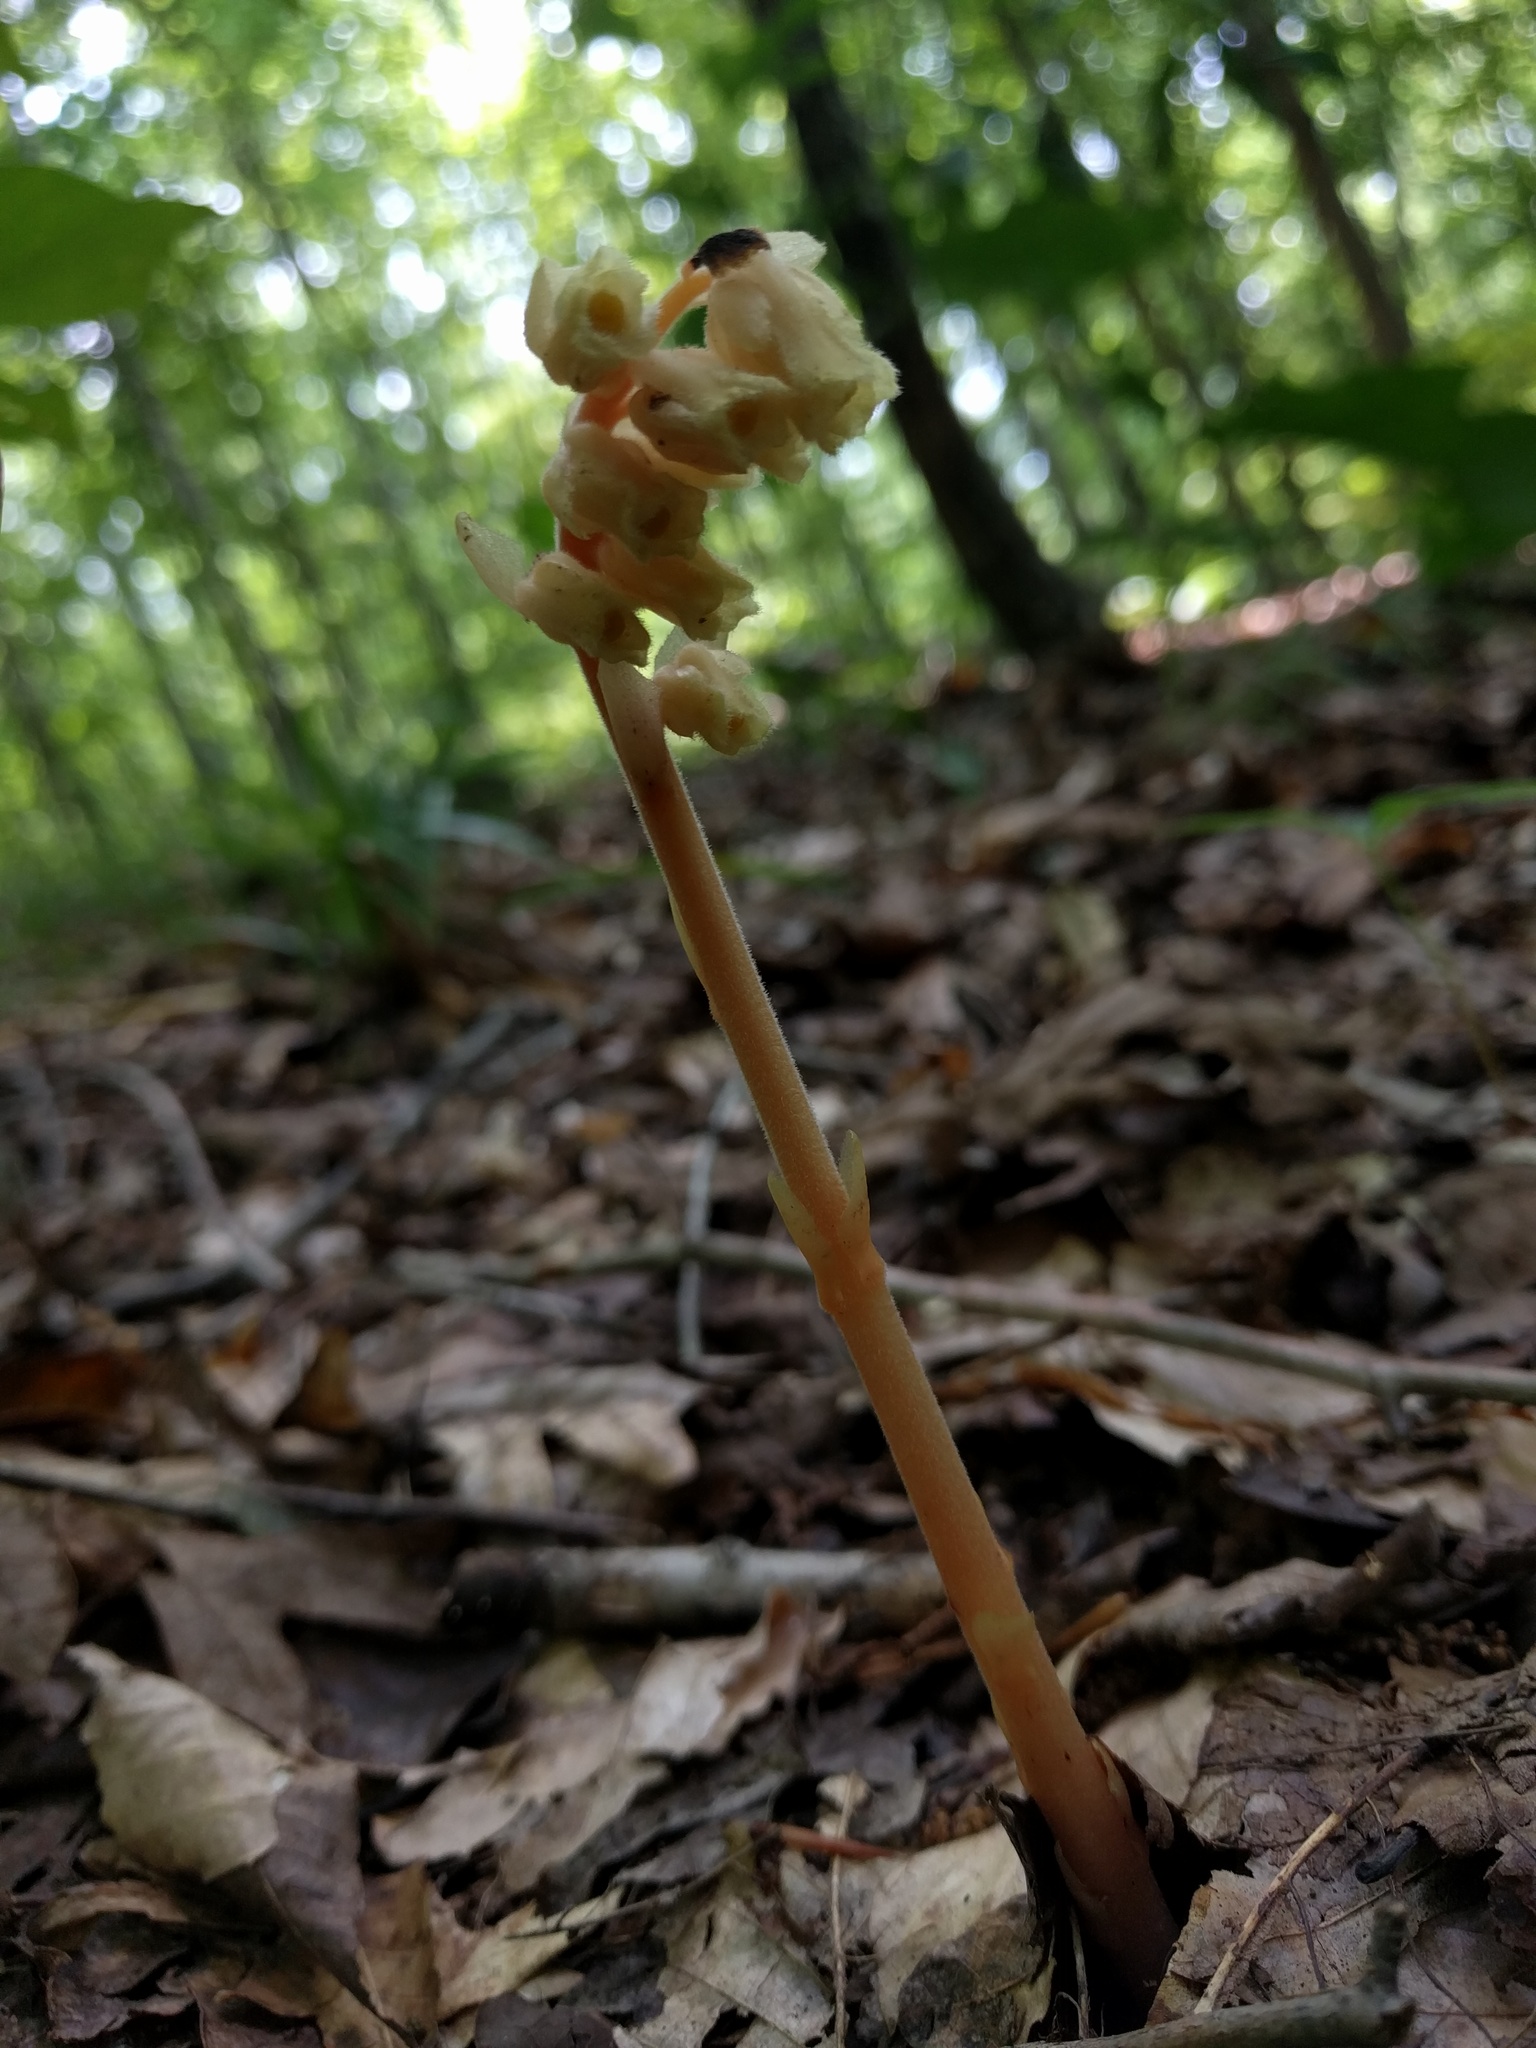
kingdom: Plantae
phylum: Tracheophyta
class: Magnoliopsida
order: Ericales
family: Ericaceae
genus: Hypopitys
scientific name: Hypopitys monotropa
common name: Yellow bird's-nest
